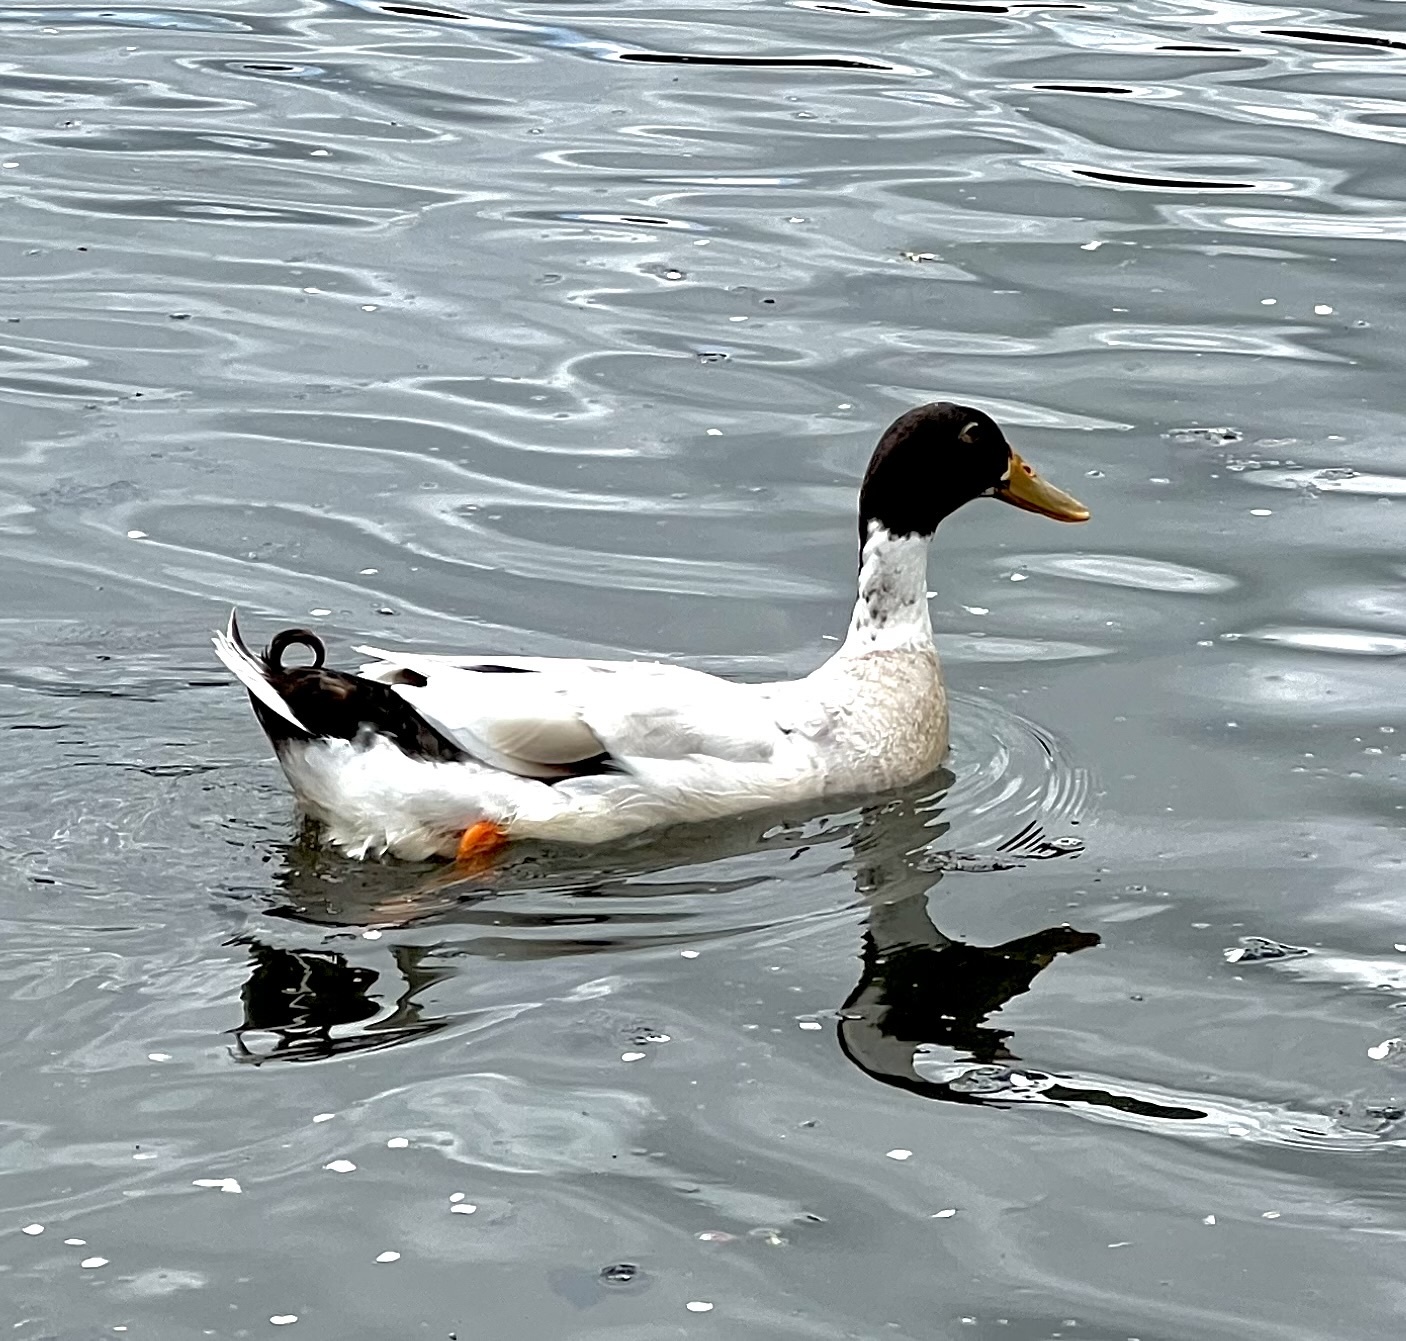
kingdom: Animalia
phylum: Chordata
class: Aves
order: Anseriformes
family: Anatidae
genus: Anas
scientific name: Anas platyrhynchos
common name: Mallard
